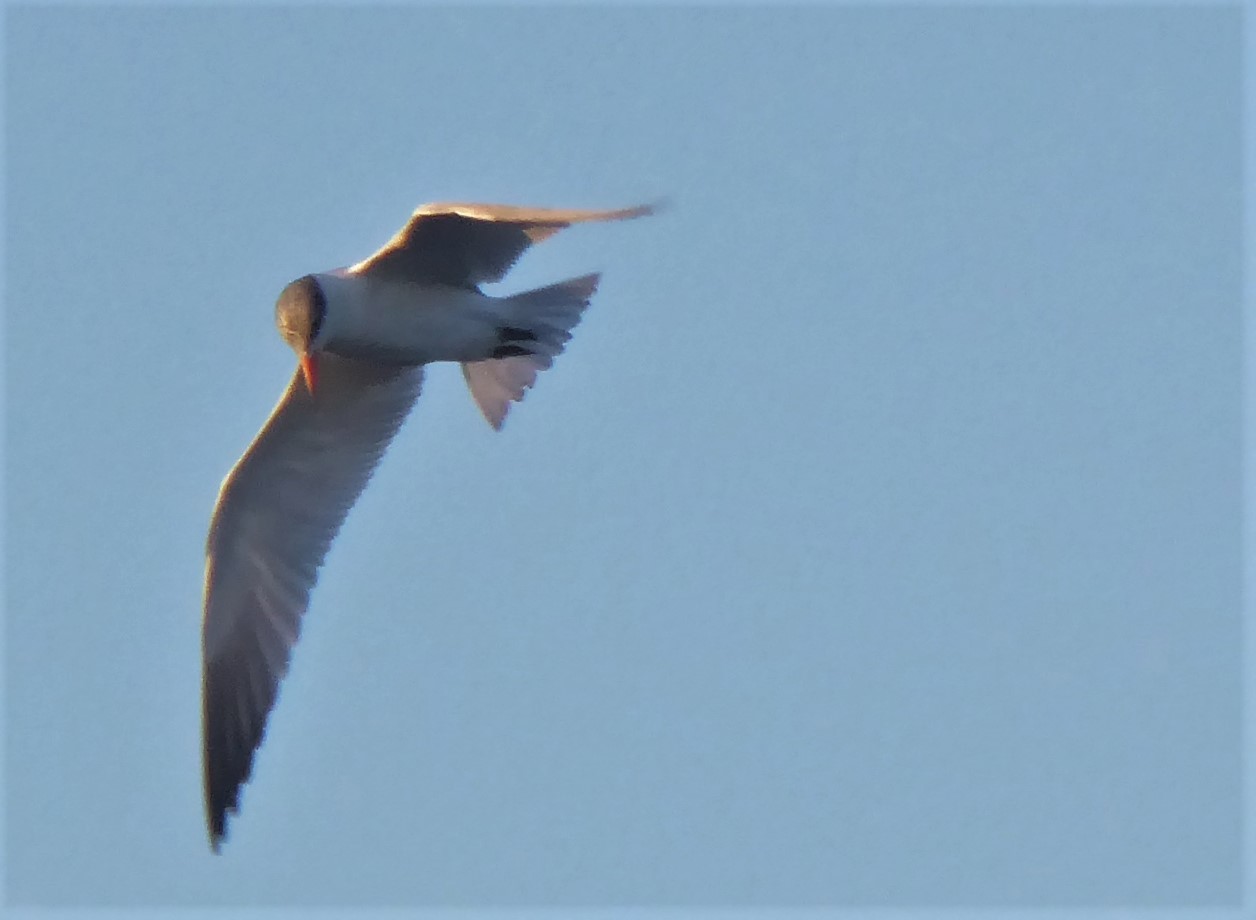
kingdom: Animalia
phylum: Chordata
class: Aves
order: Charadriiformes
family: Laridae
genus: Hydroprogne
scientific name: Hydroprogne caspia
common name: Caspian tern
